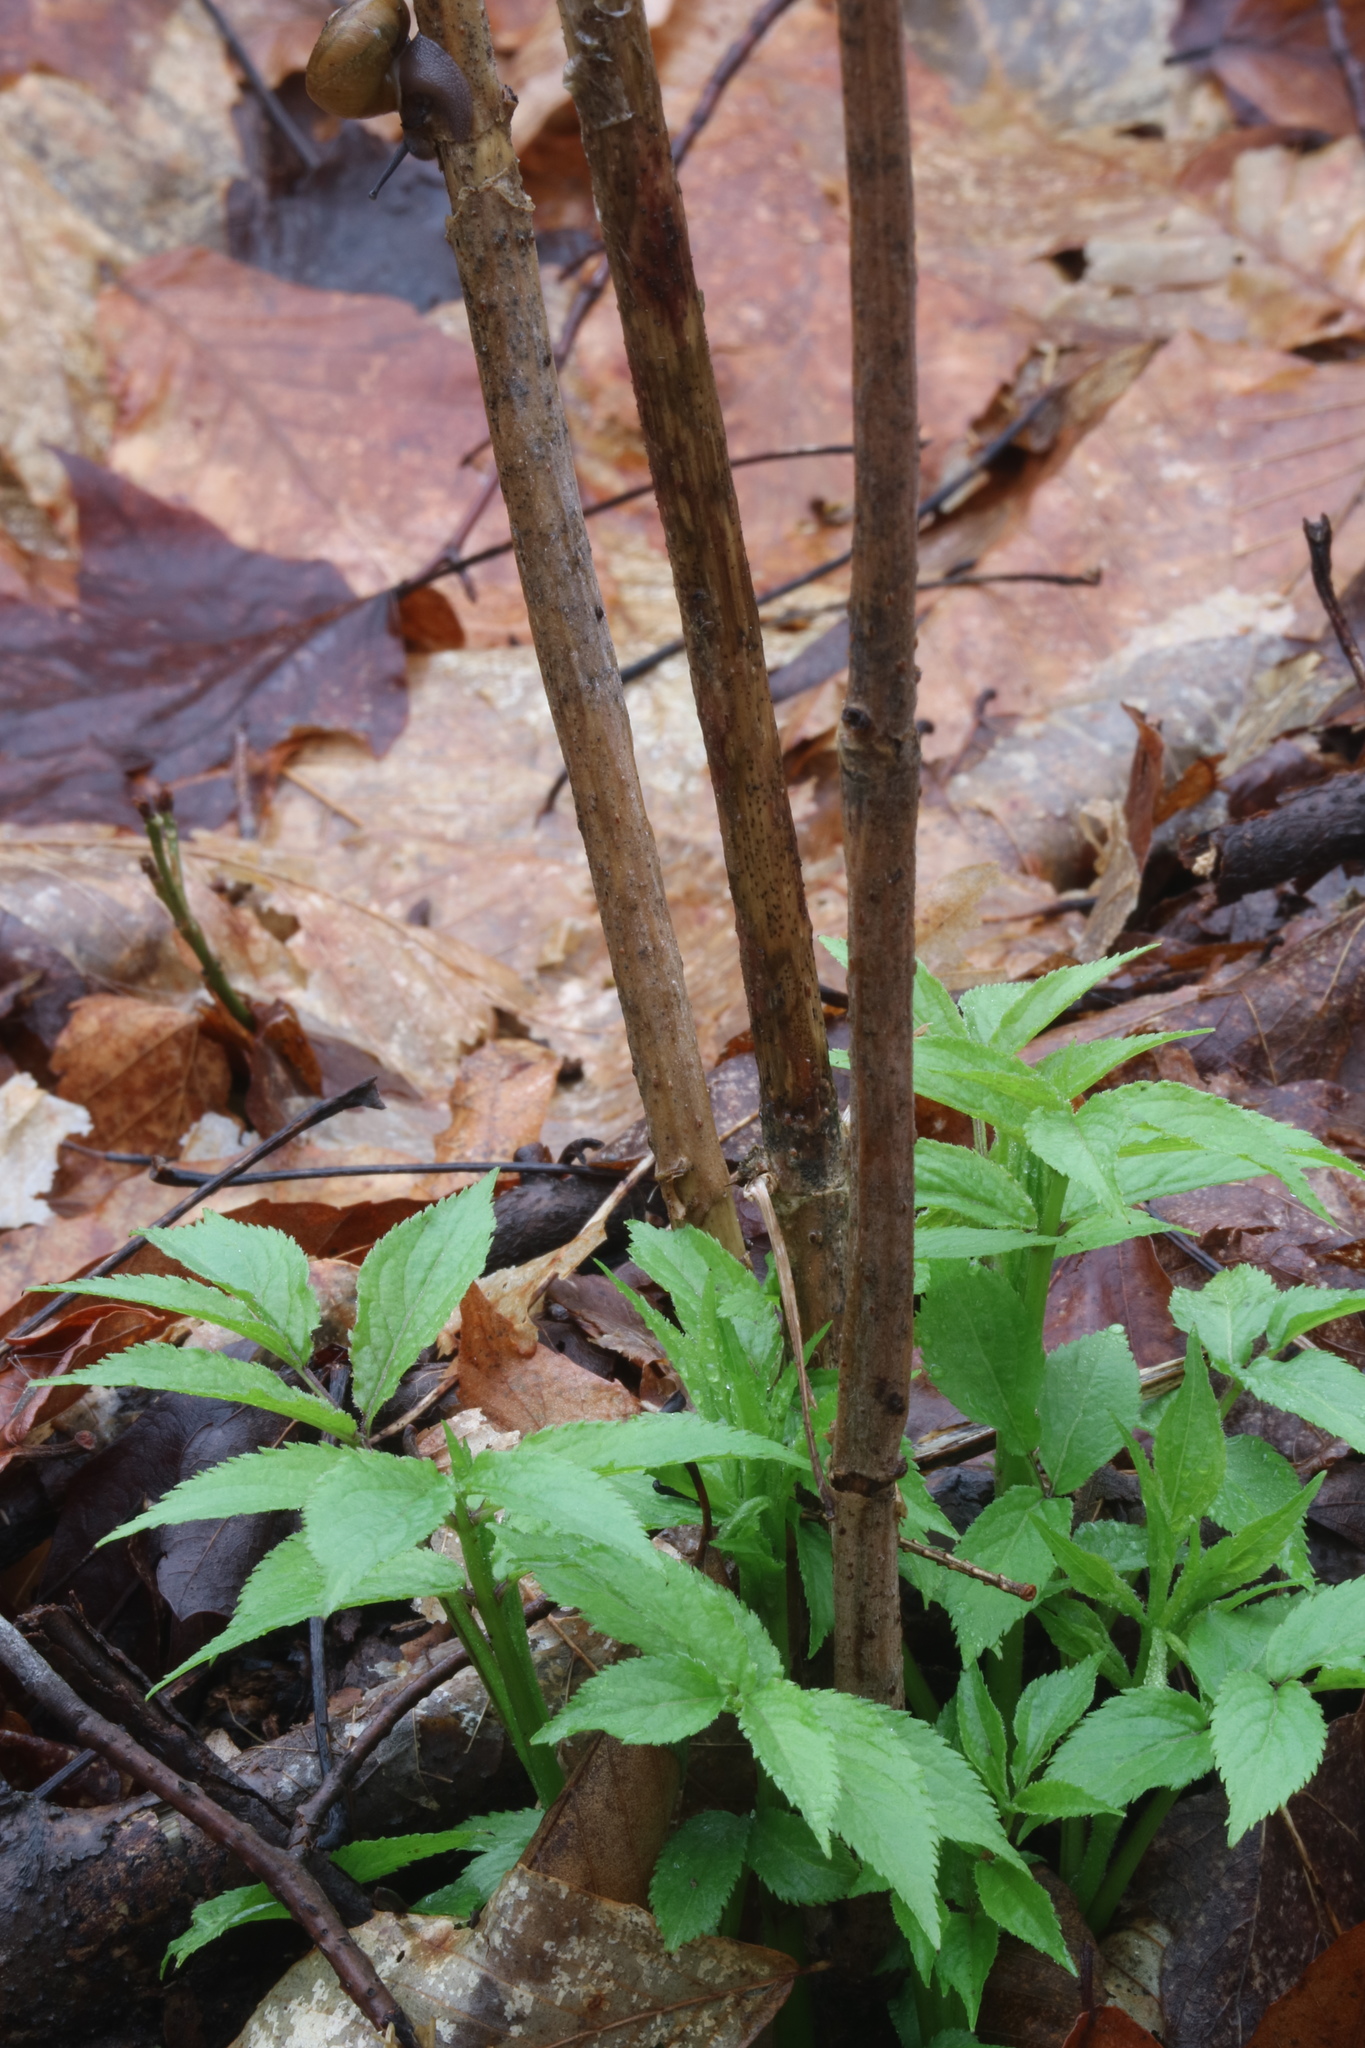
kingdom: Plantae
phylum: Tracheophyta
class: Magnoliopsida
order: Dipsacales
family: Viburnaceae
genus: Sambucus
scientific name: Sambucus
